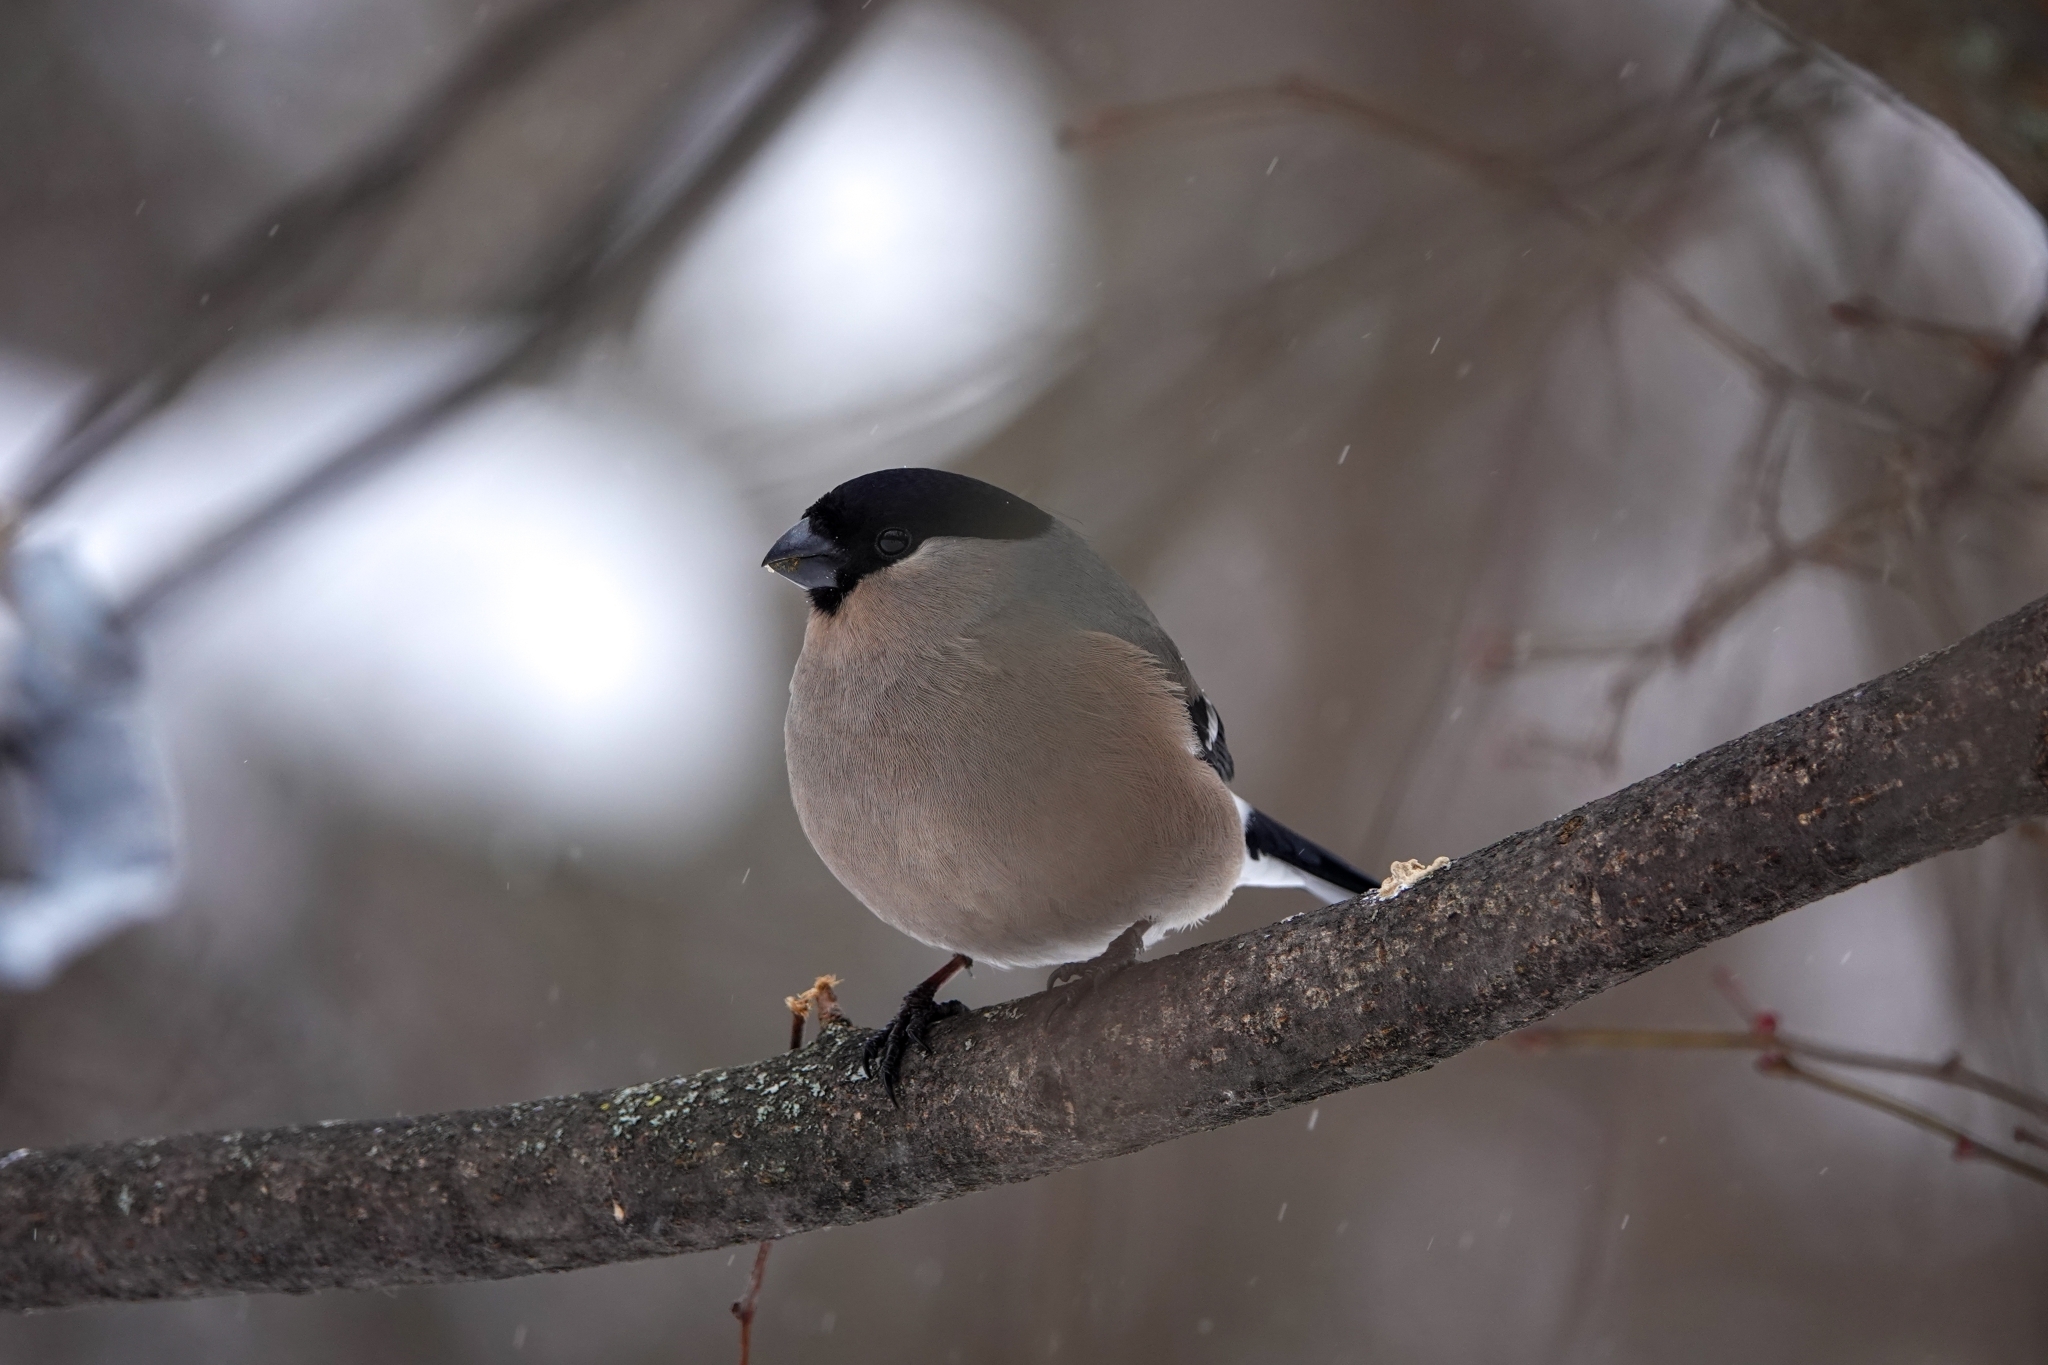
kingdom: Animalia
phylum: Chordata
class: Aves
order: Passeriformes
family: Fringillidae
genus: Pyrrhula
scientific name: Pyrrhula pyrrhula
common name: Eurasian bullfinch
